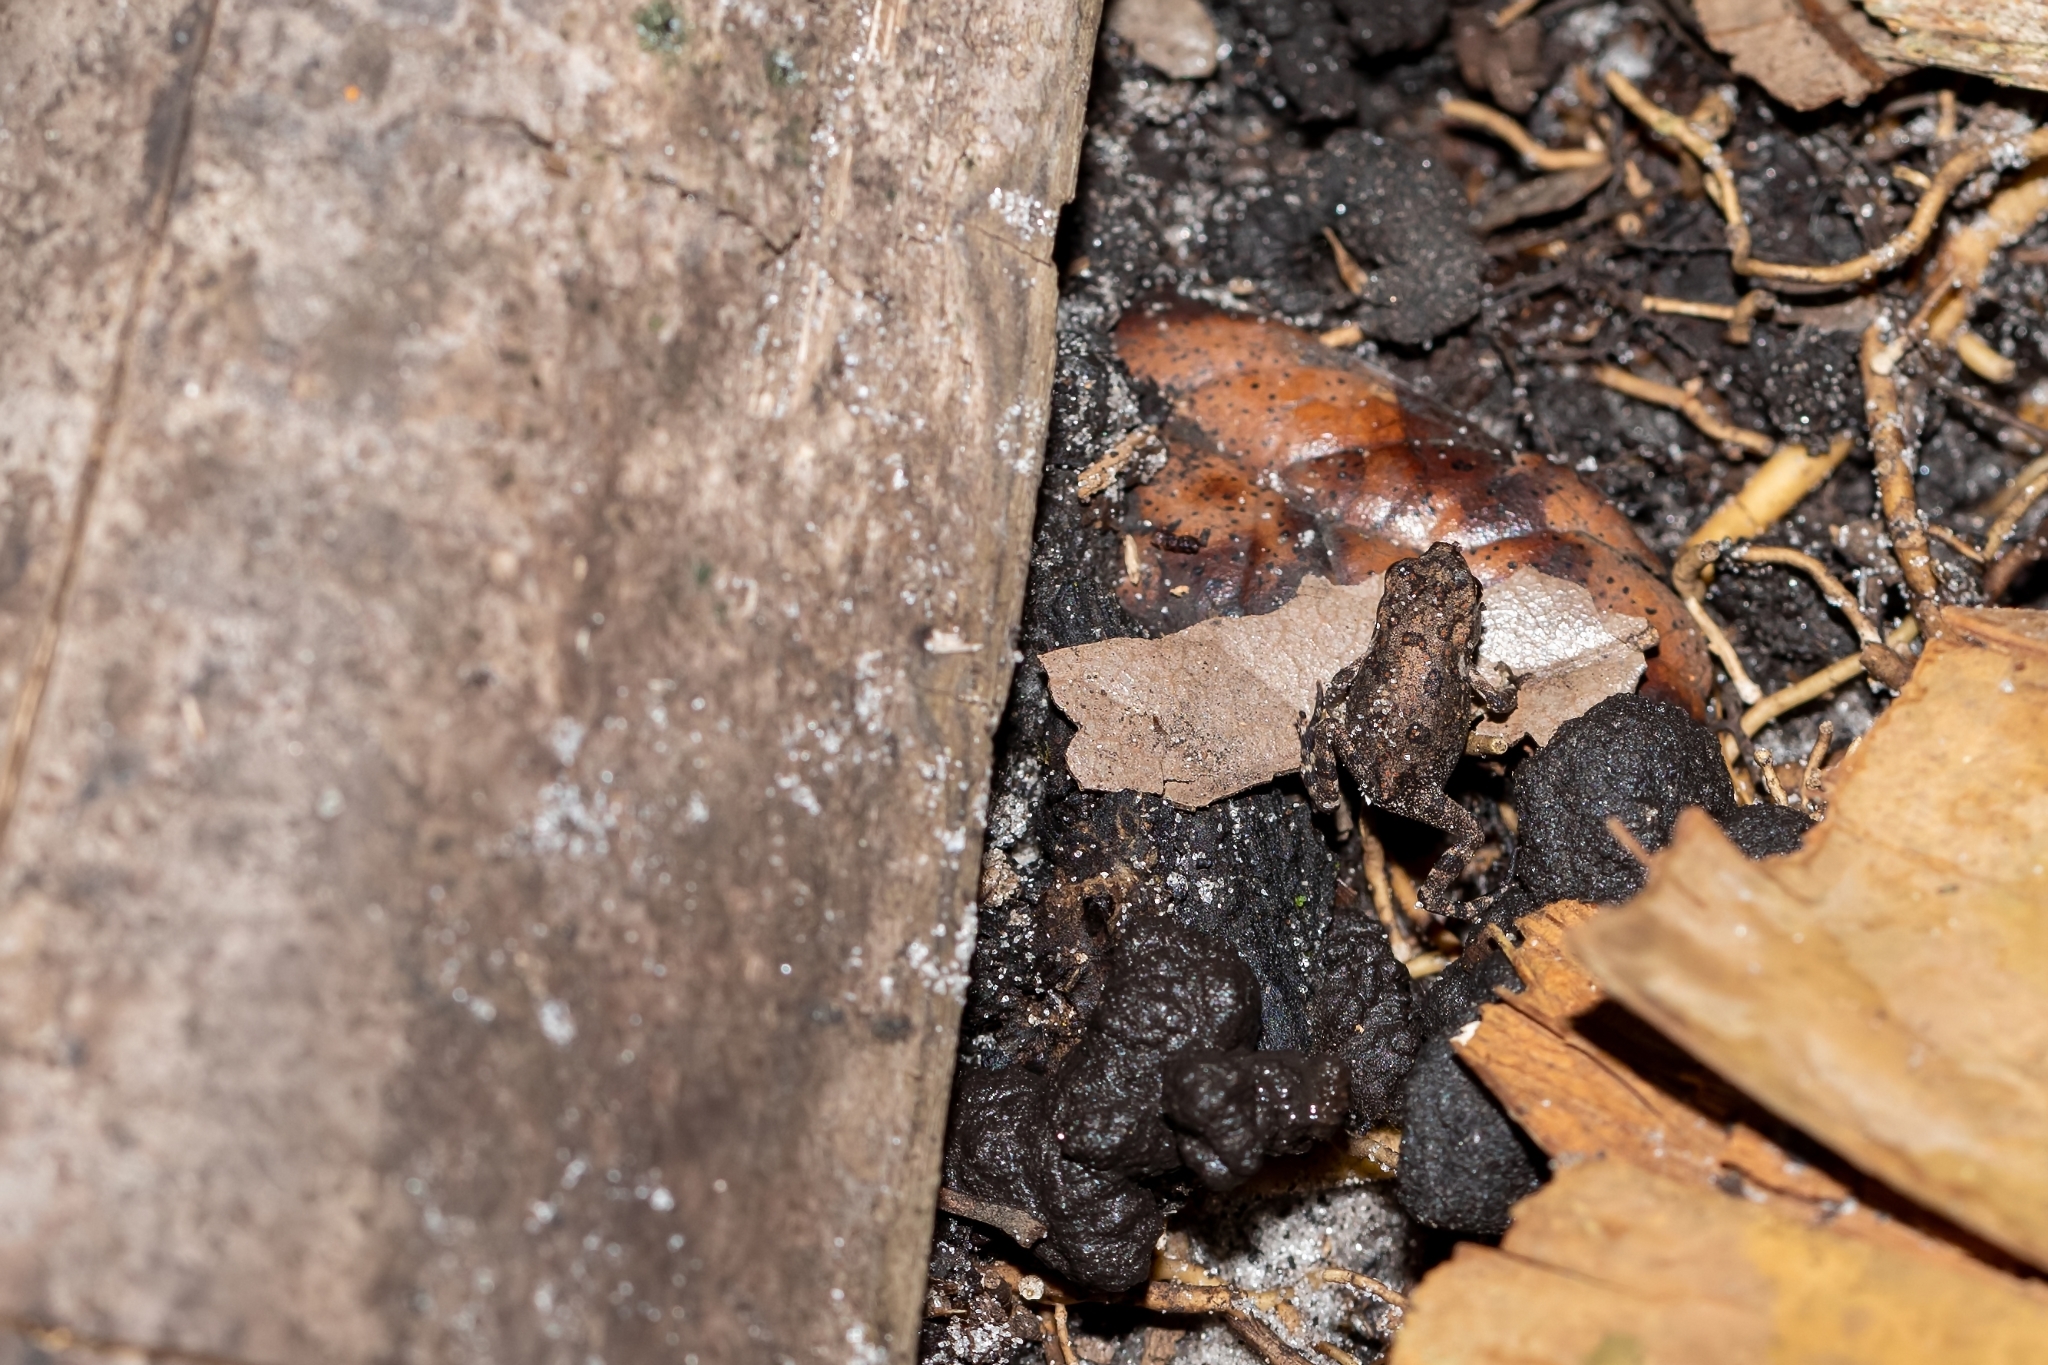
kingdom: Animalia
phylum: Chordata
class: Amphibia
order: Anura
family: Bufonidae
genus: Anaxyrus
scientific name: Anaxyrus terrestris
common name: Southern toad
